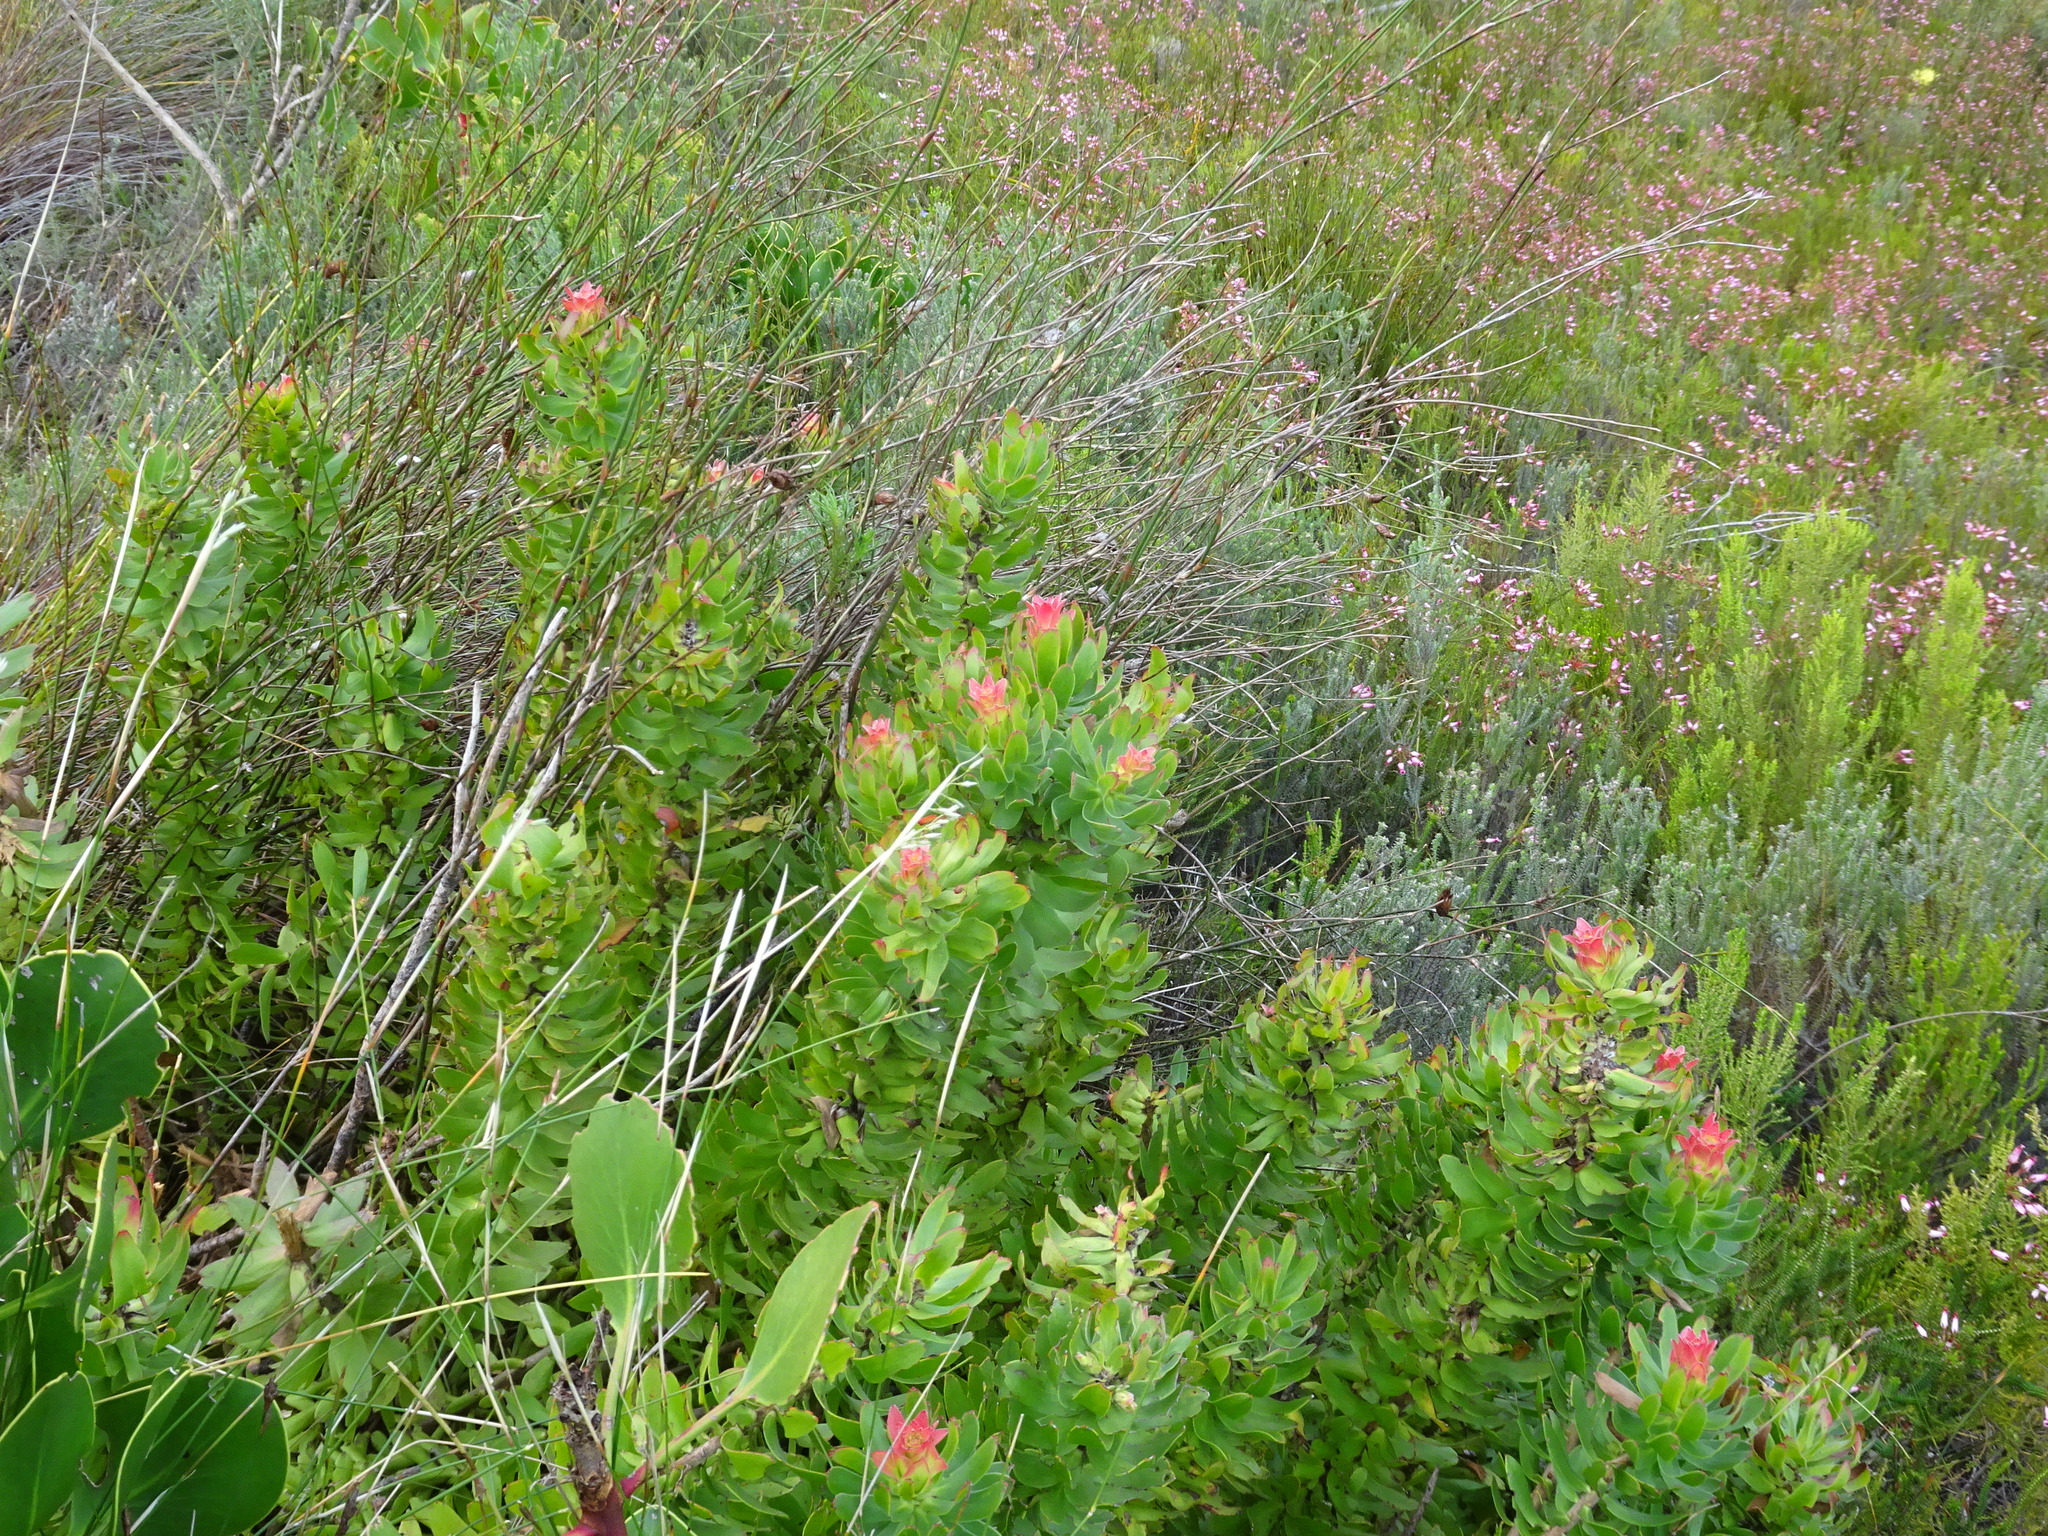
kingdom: Plantae
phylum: Tracheophyta
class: Magnoliopsida
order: Proteales
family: Proteaceae
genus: Mimetes
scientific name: Mimetes cucullatus
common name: Common pagoda
